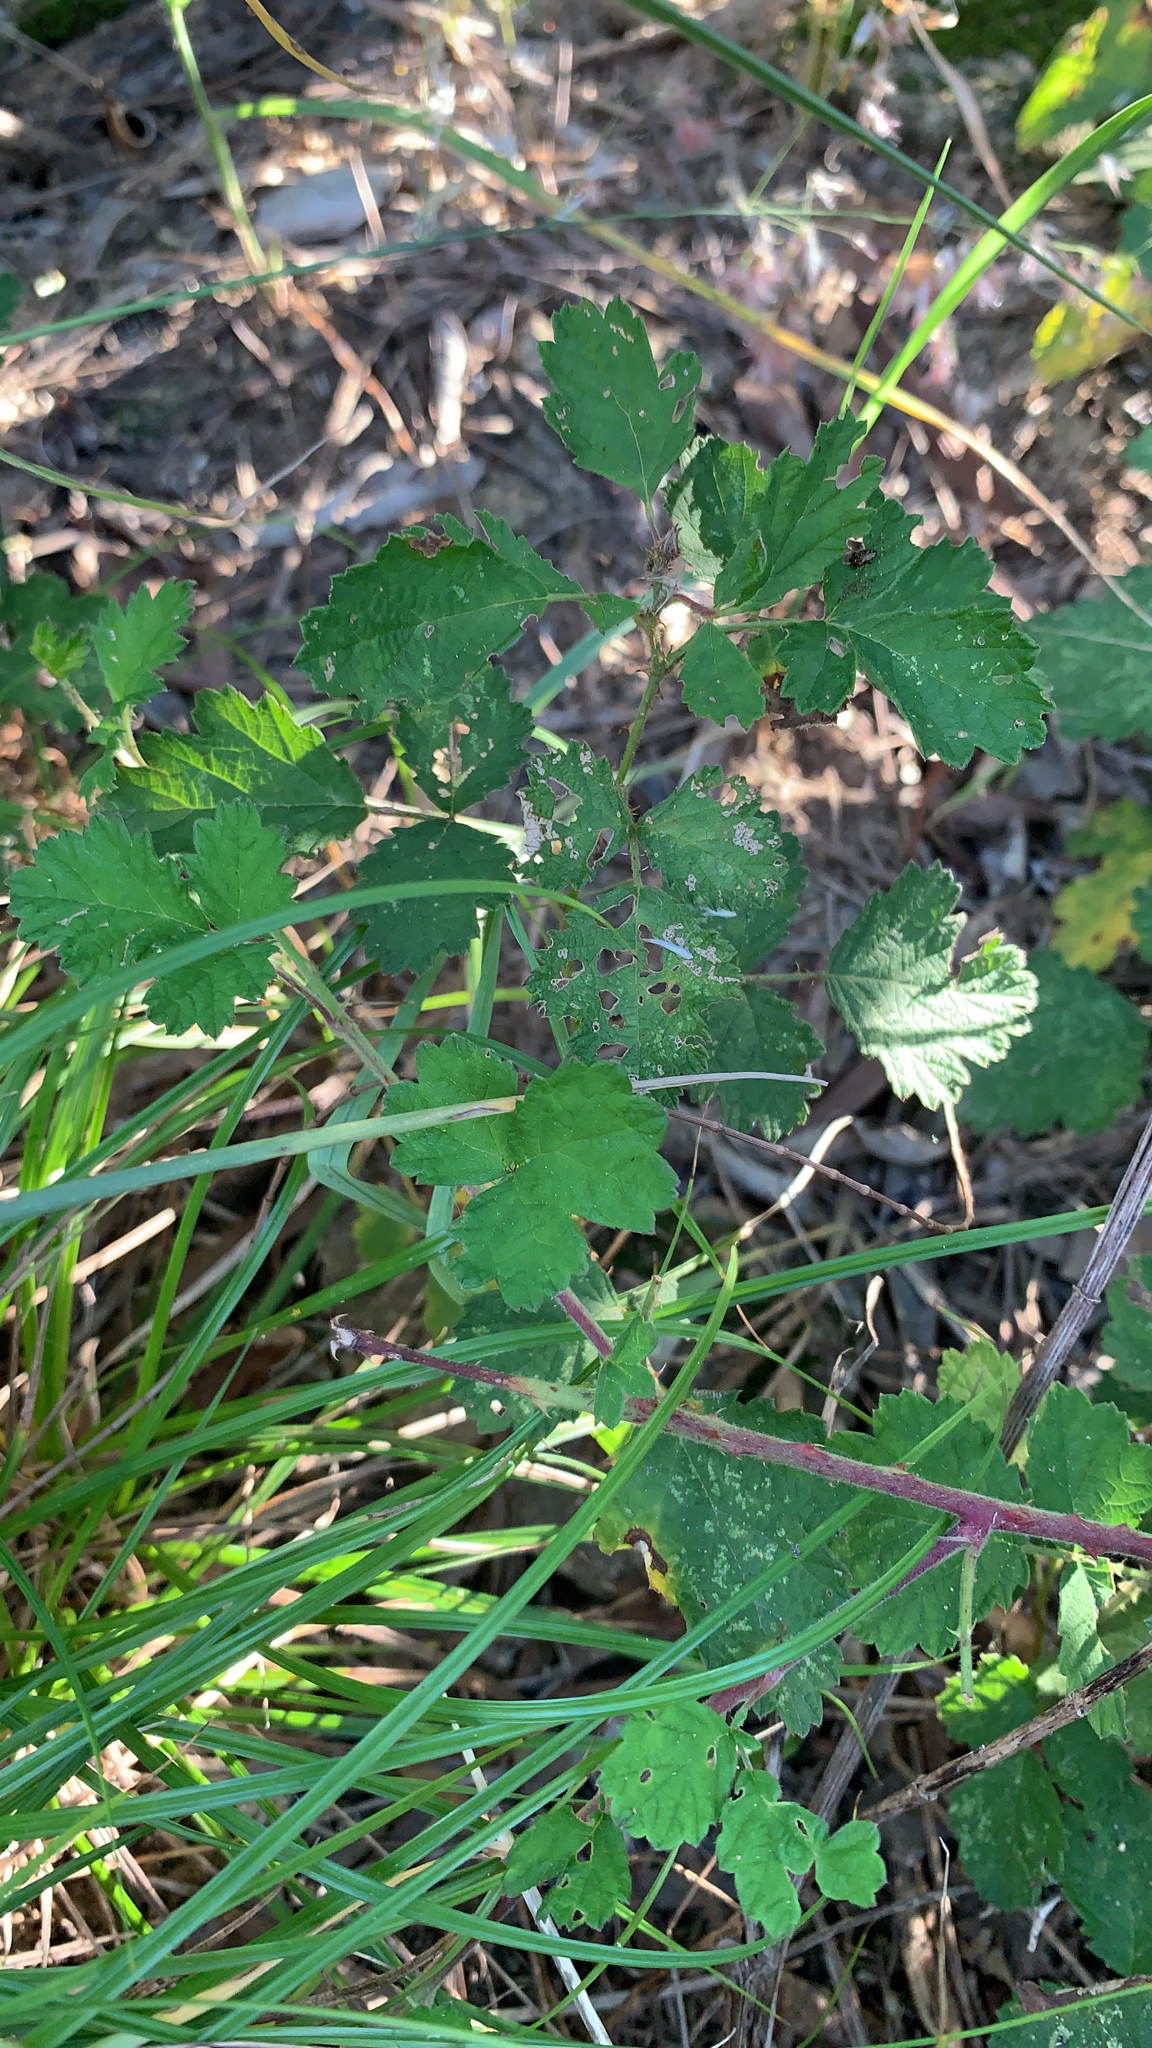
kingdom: Plantae
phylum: Tracheophyta
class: Magnoliopsida
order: Rosales
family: Rosaceae
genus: Rubus
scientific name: Rubus parvifolius
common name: Threeleaf blackberry
